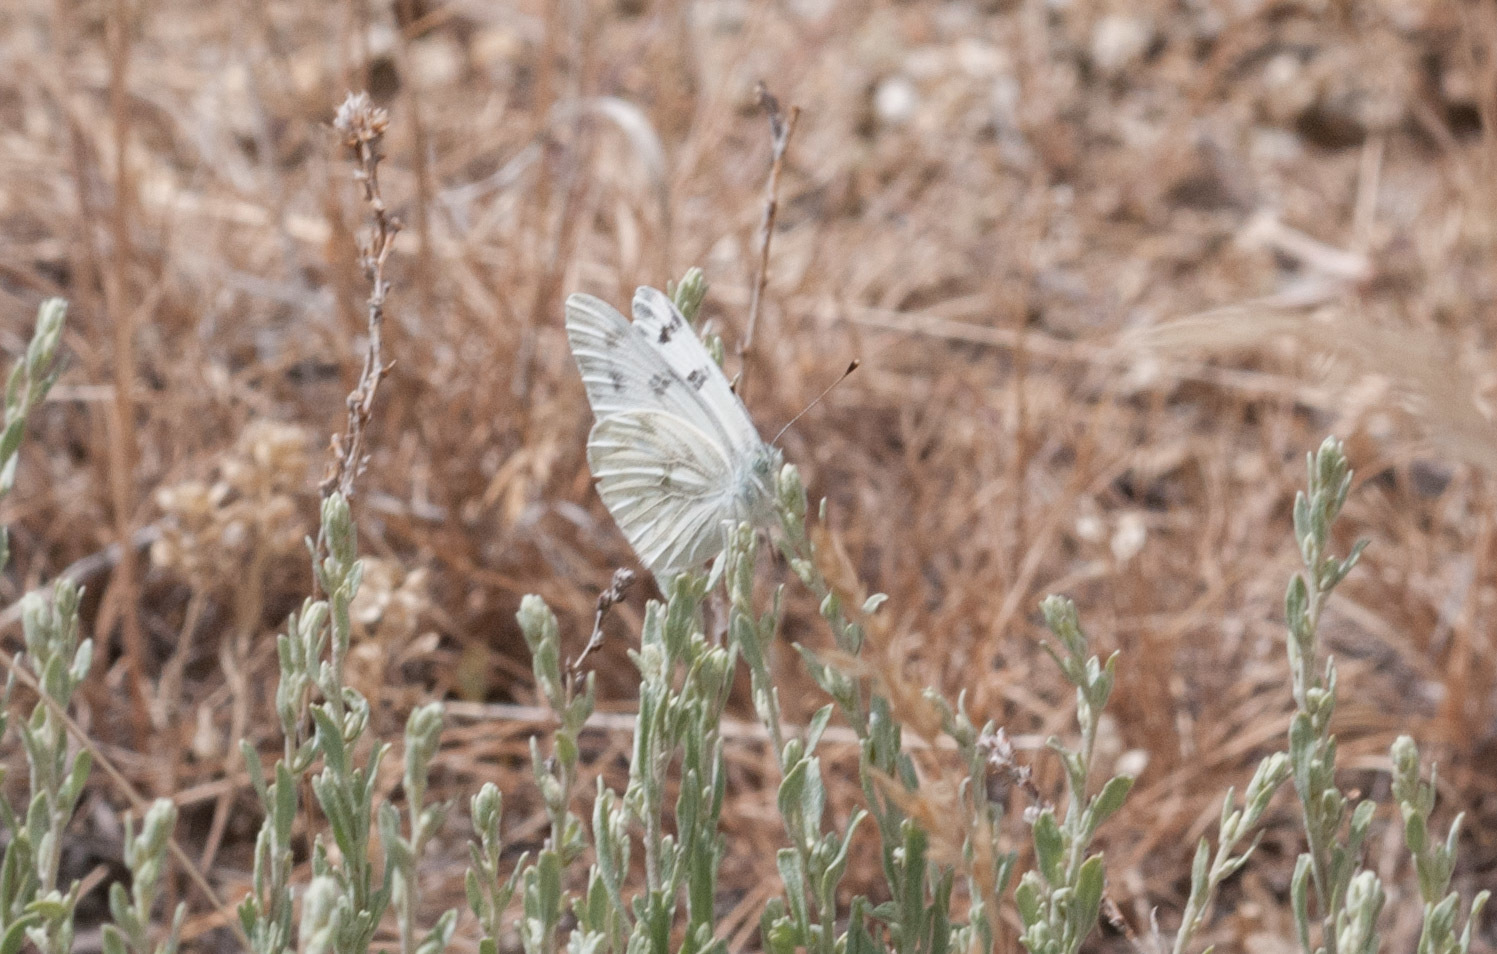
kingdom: Animalia
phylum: Arthropoda
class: Insecta
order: Lepidoptera
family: Pieridae
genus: Pontia
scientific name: Pontia occidentalis
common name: Western white
